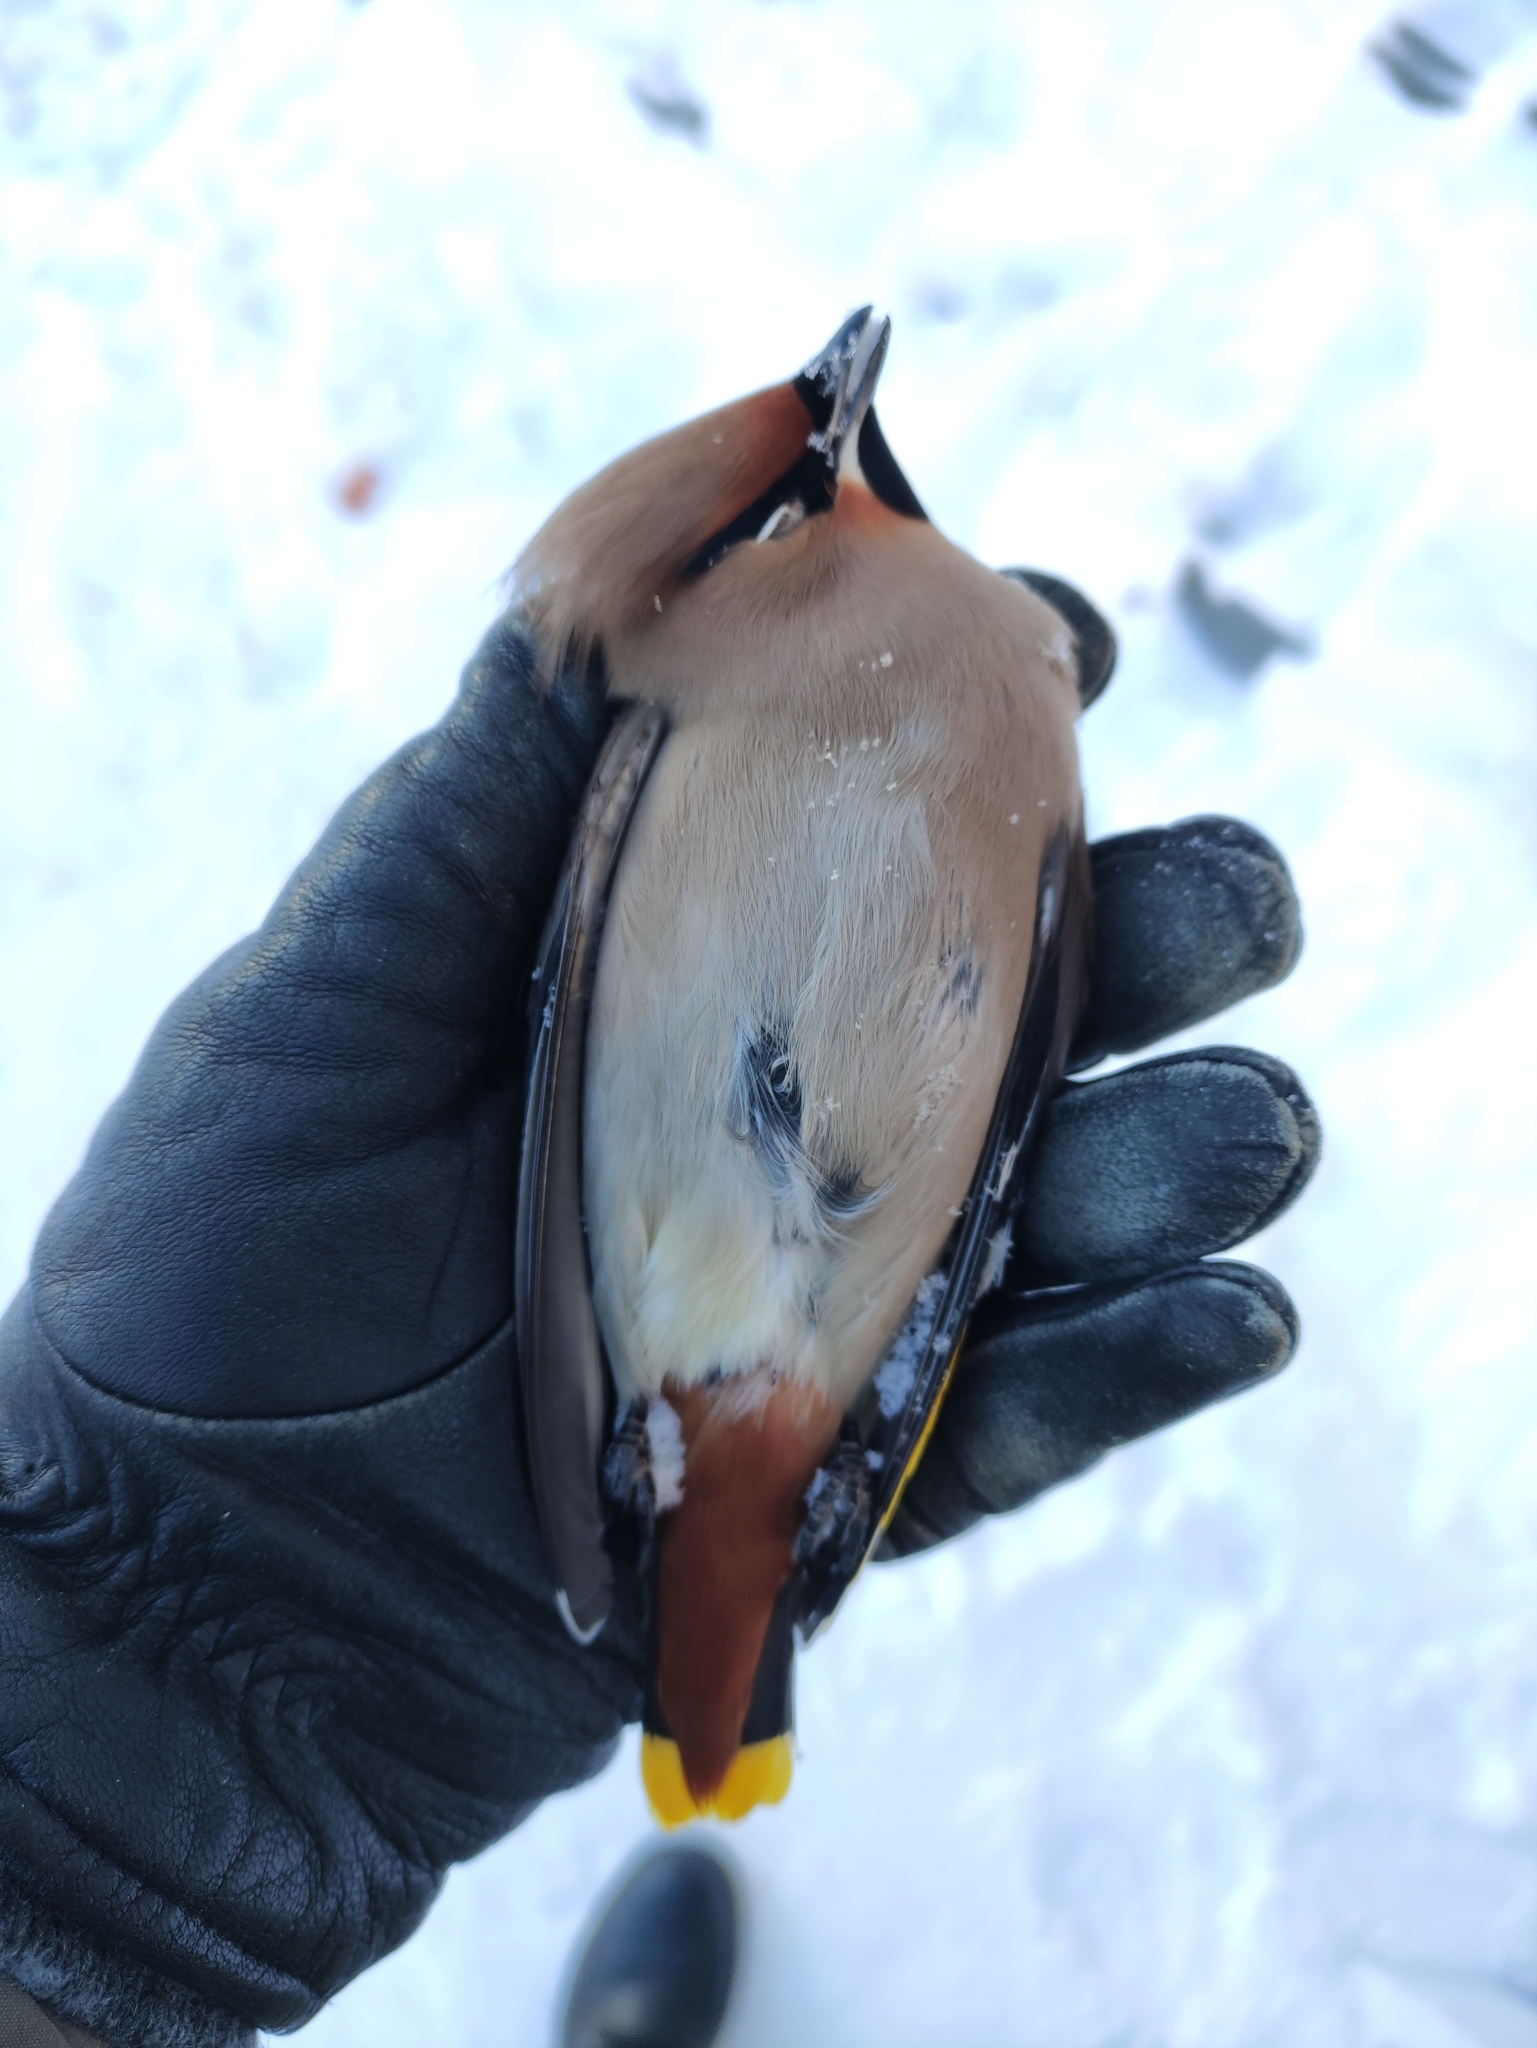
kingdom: Animalia
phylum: Chordata
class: Aves
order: Passeriformes
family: Bombycillidae
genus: Bombycilla
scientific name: Bombycilla garrulus
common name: Bohemian waxwing
